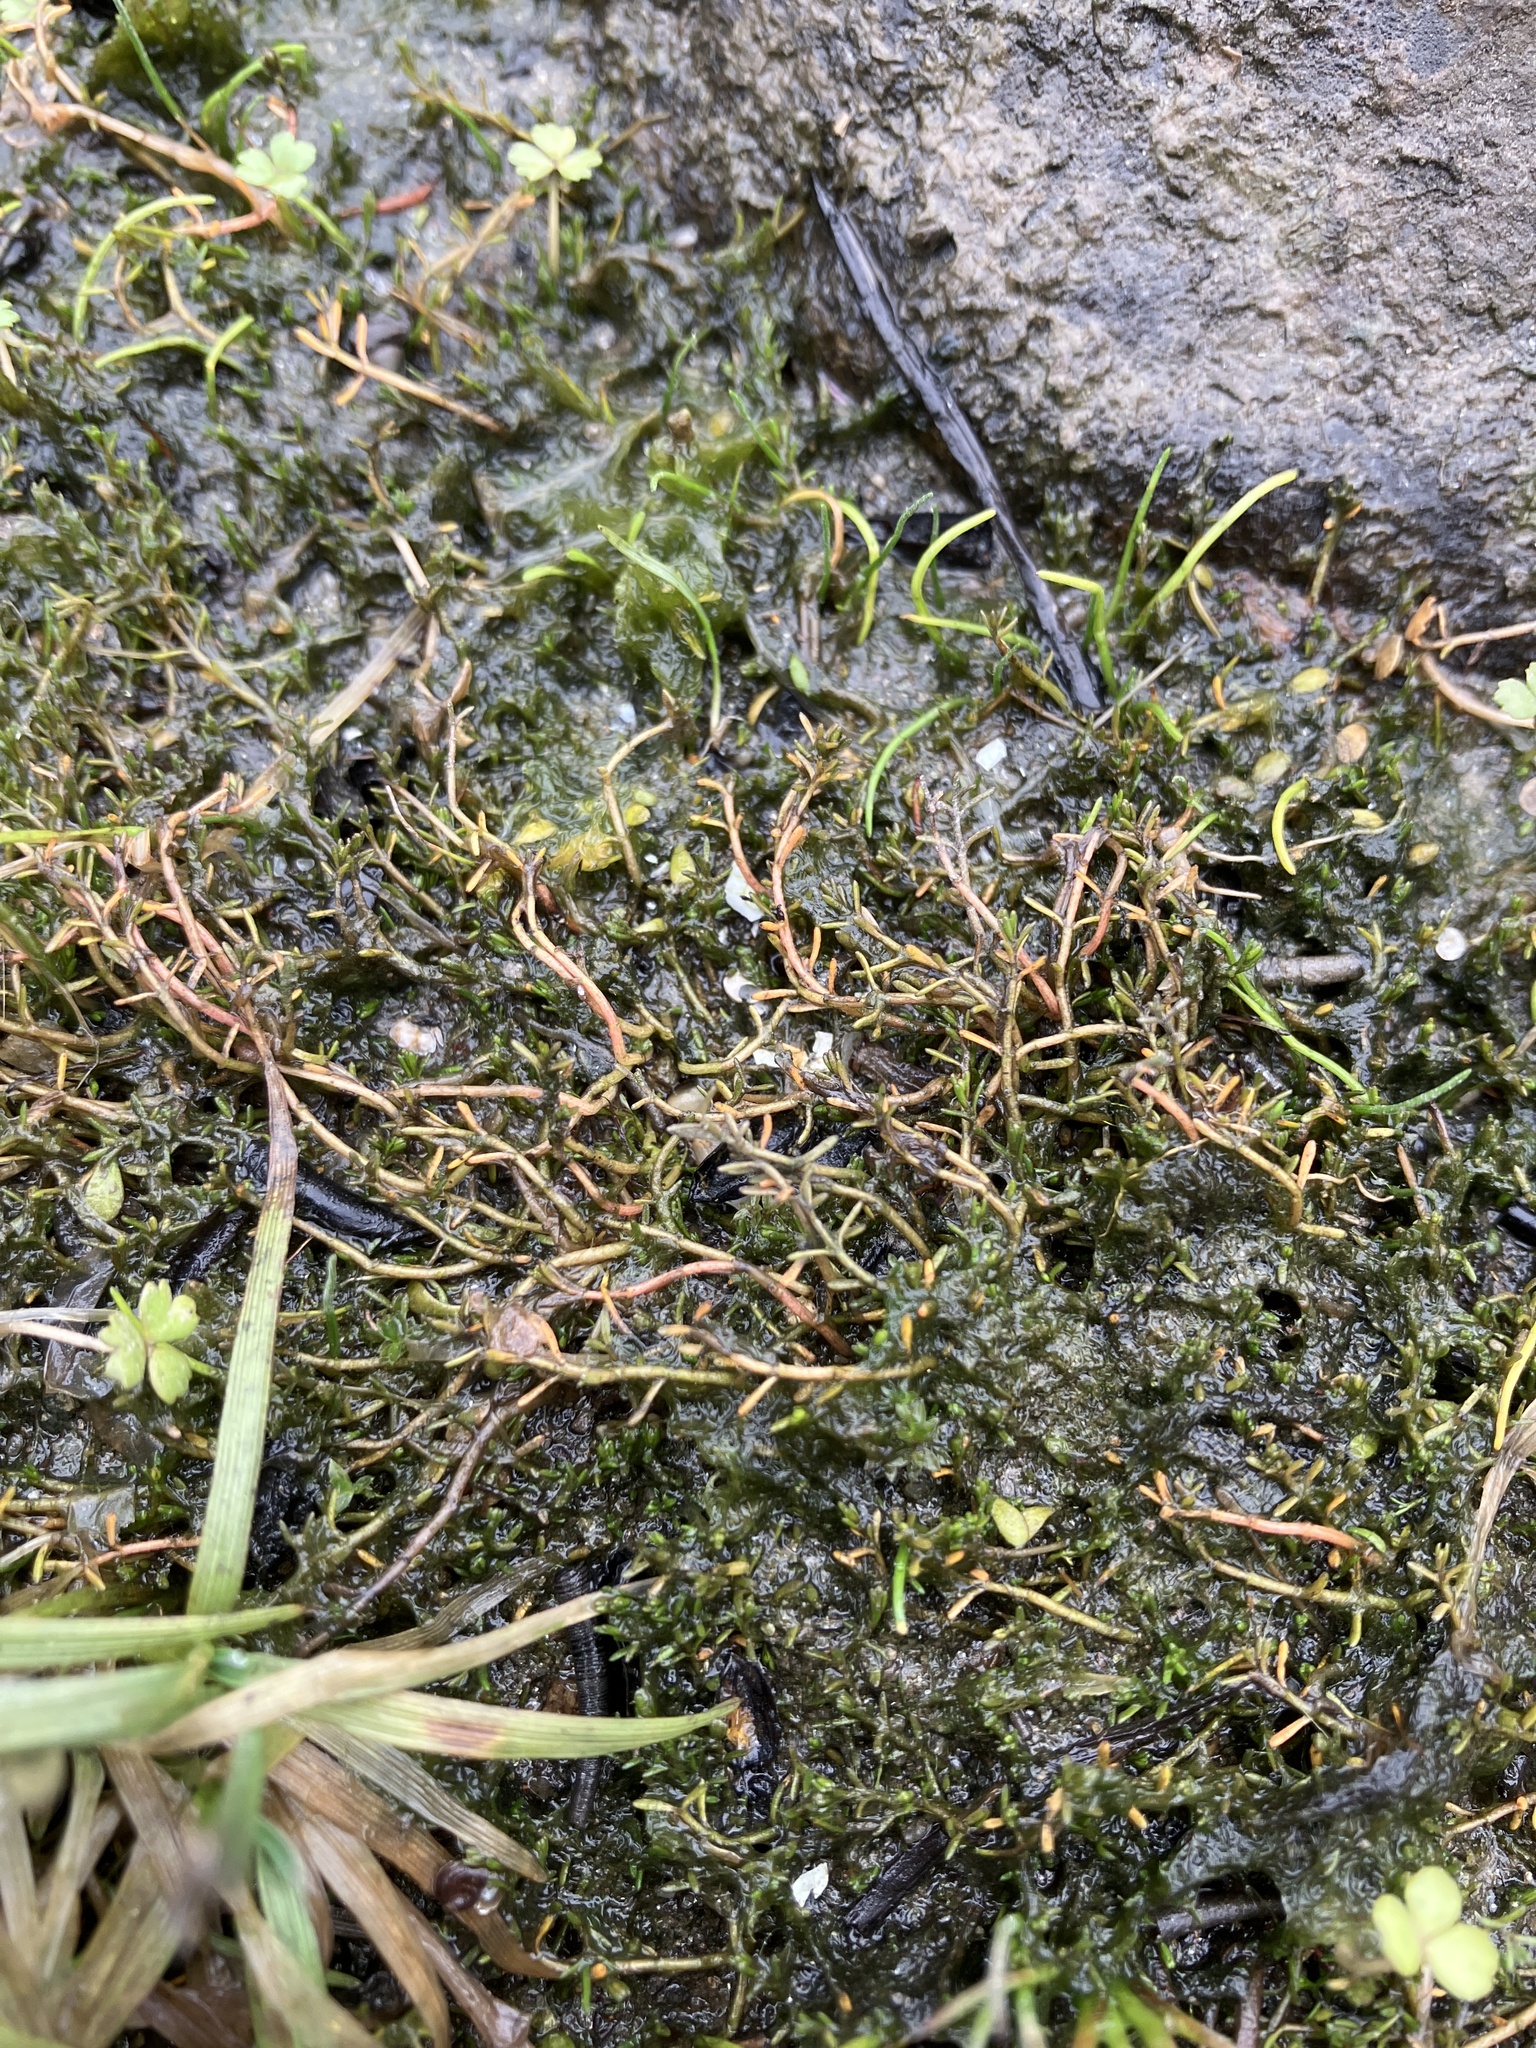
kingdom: Plantae
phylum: Tracheophyta
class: Magnoliopsida
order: Saxifragales
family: Haloragaceae
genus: Myriophyllum
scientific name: Myriophyllum pedunculatum
